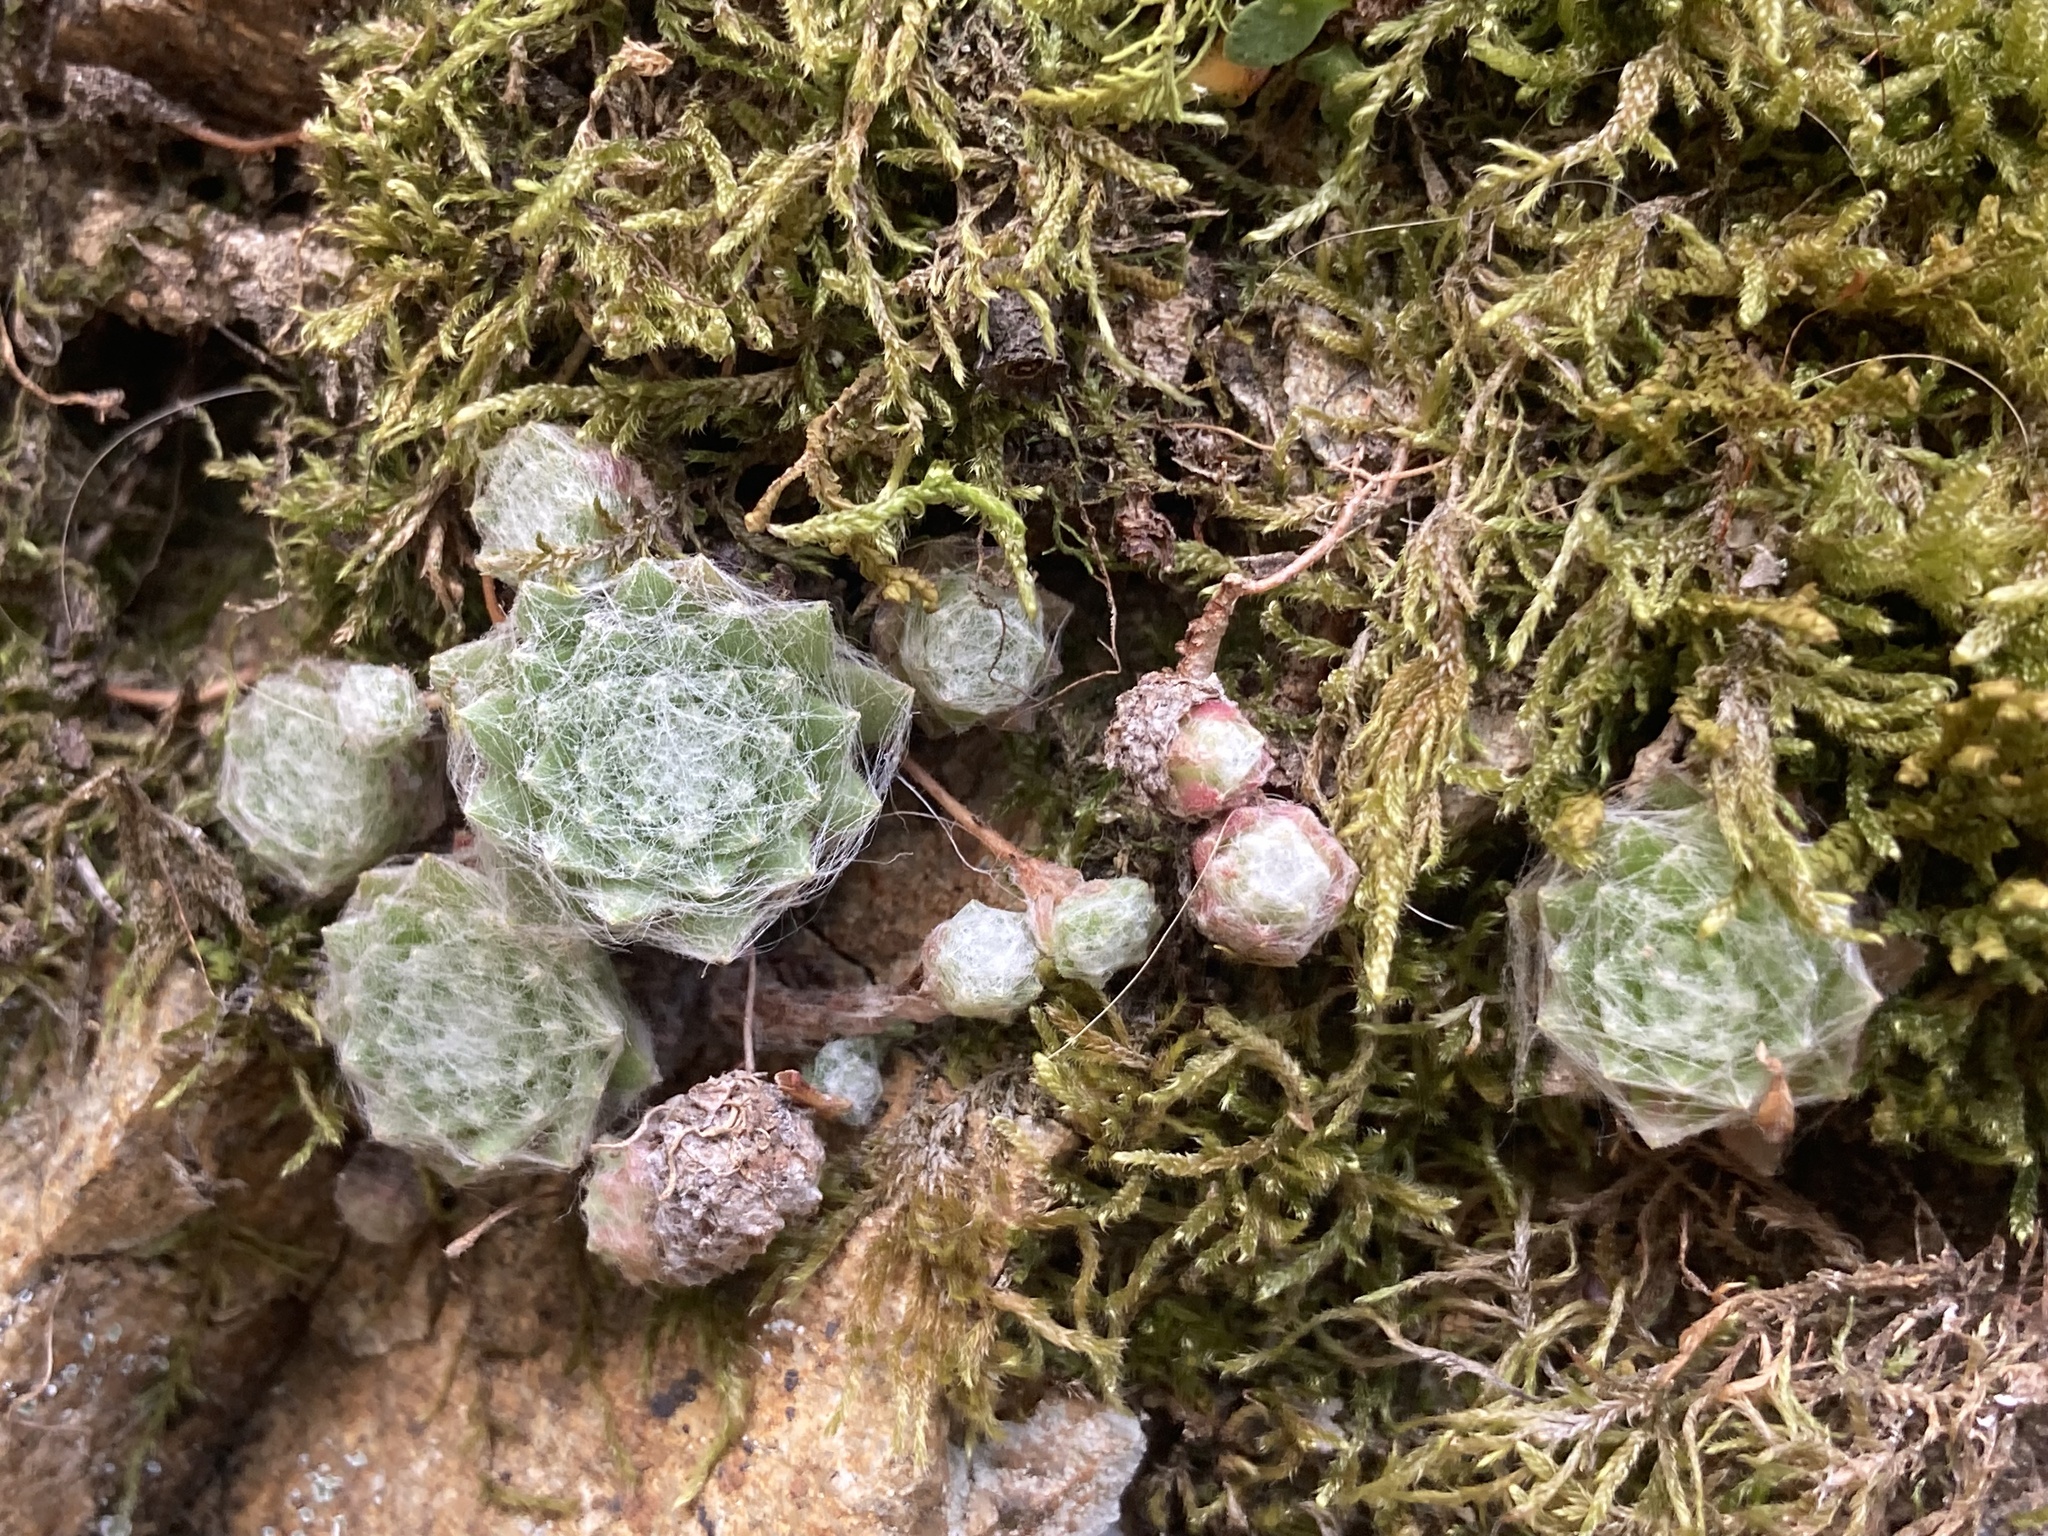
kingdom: Plantae
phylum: Tracheophyta
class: Magnoliopsida
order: Saxifragales
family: Crassulaceae
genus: Sempervivum
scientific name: Sempervivum arachnoideum
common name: Cobweb house-leek
